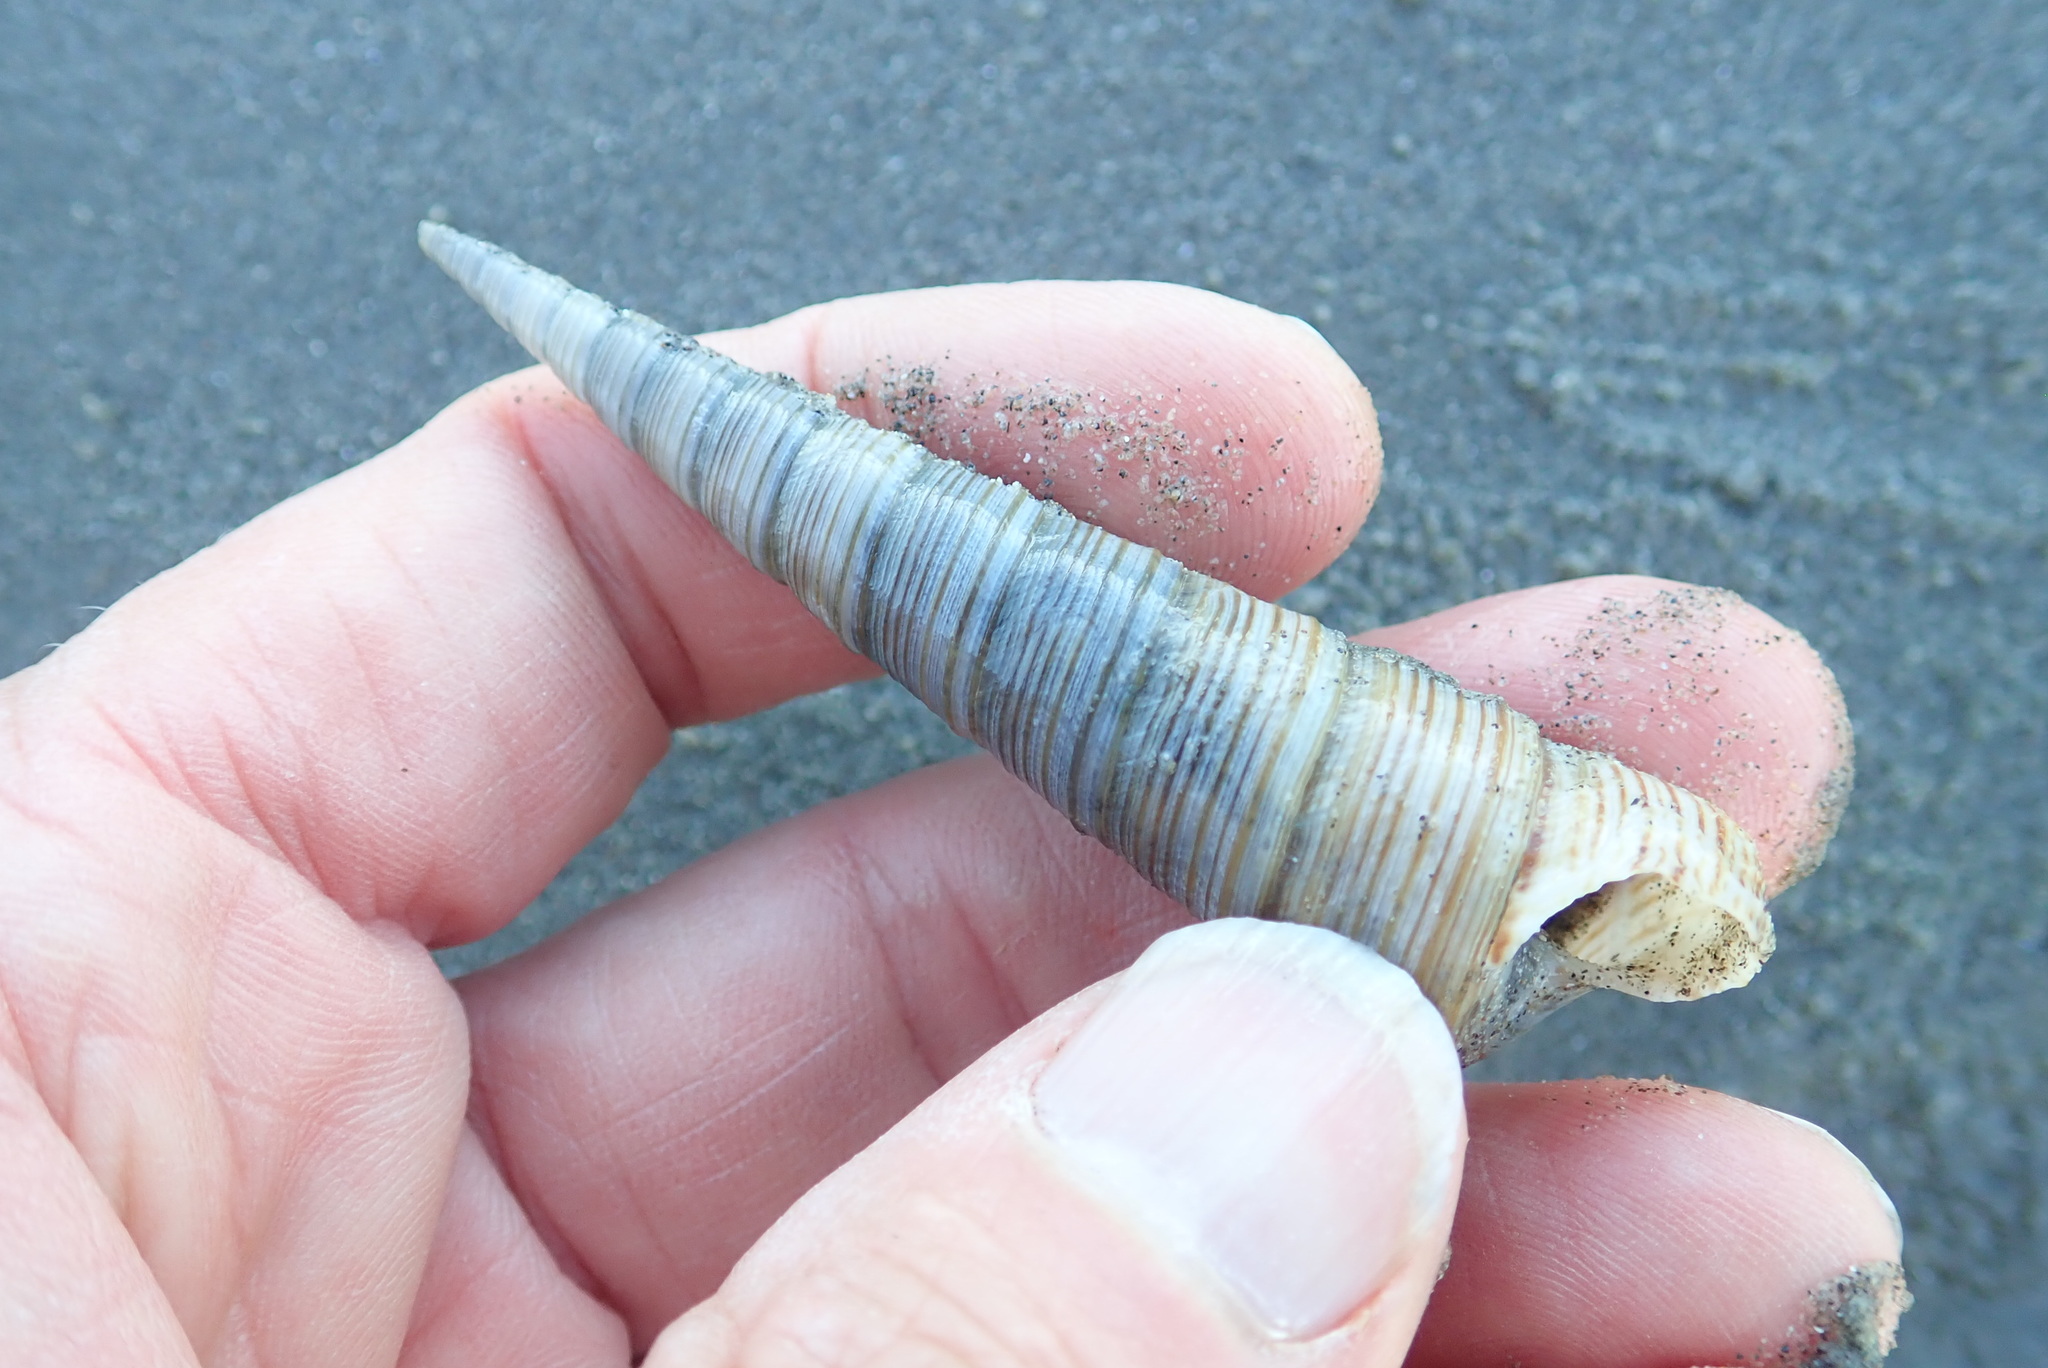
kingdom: Animalia
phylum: Mollusca
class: Gastropoda
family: Turritellidae
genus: Zeacolpus
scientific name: Zeacolpus vittatus
